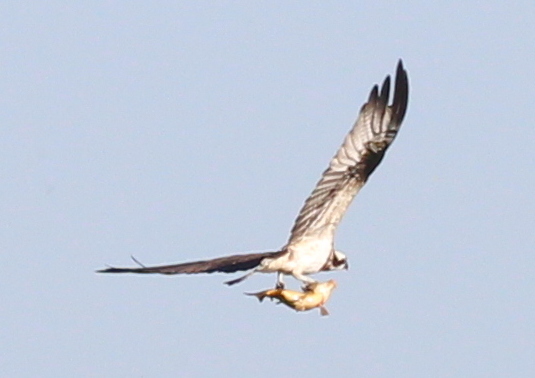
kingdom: Animalia
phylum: Chordata
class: Aves
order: Accipitriformes
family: Pandionidae
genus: Pandion
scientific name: Pandion haliaetus
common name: Osprey
